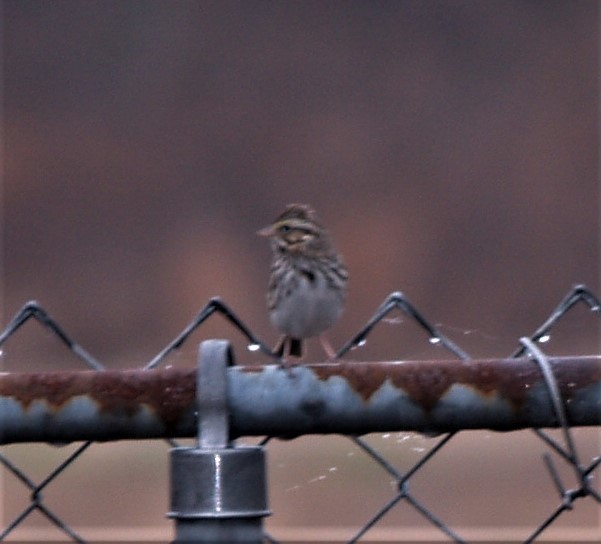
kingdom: Animalia
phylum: Chordata
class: Aves
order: Passeriformes
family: Passerellidae
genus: Passerculus
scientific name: Passerculus sandwichensis
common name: Savannah sparrow
